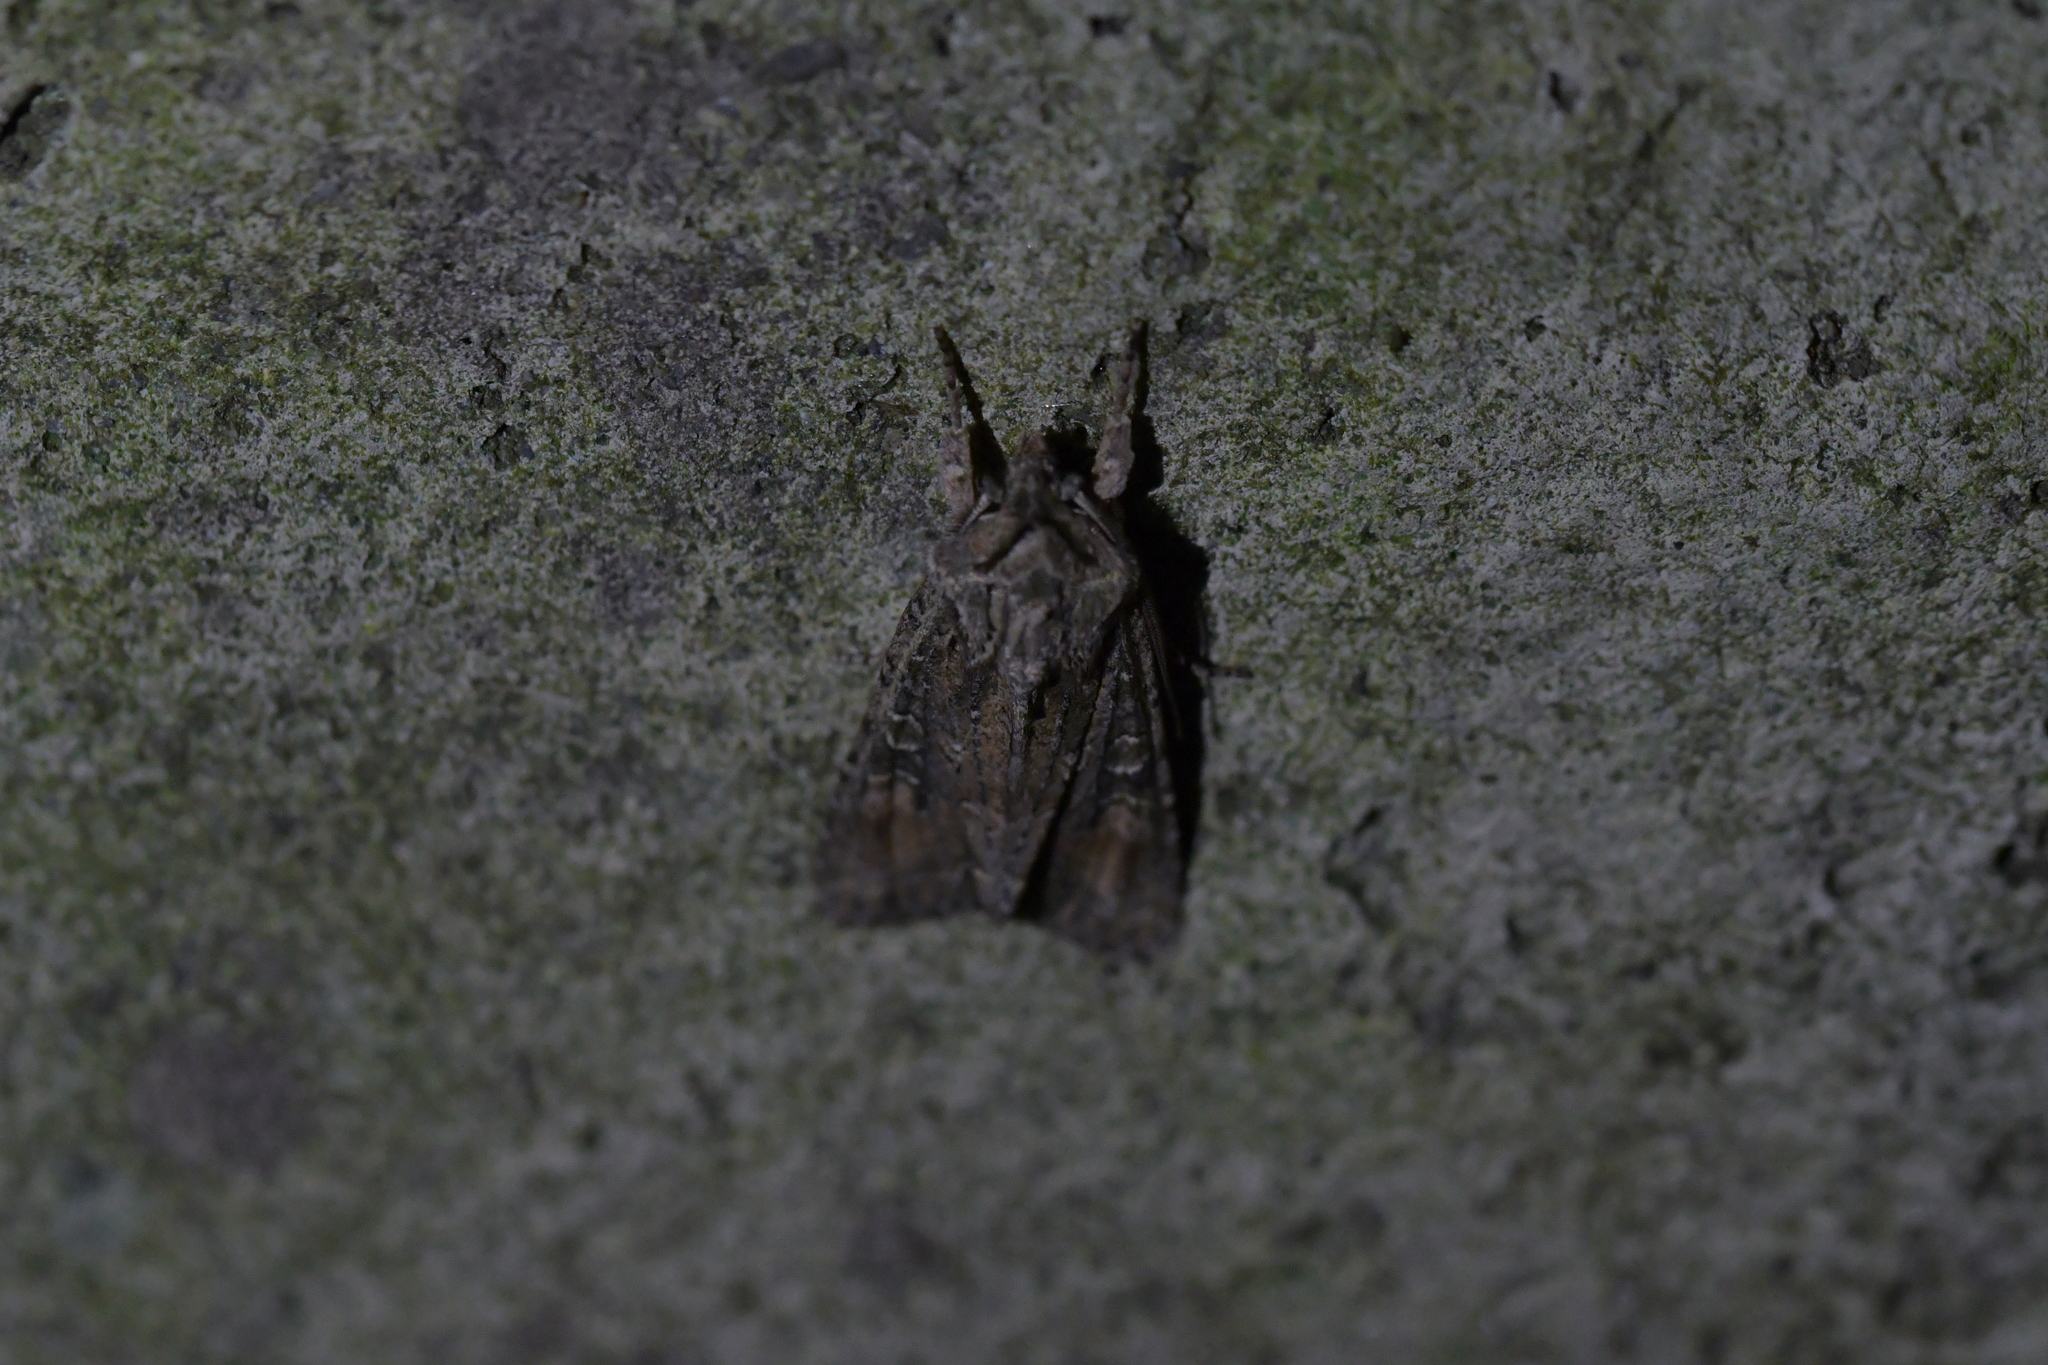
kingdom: Animalia
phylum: Arthropoda
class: Insecta
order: Lepidoptera
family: Noctuidae
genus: Ichneutica
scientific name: Ichneutica mutans
